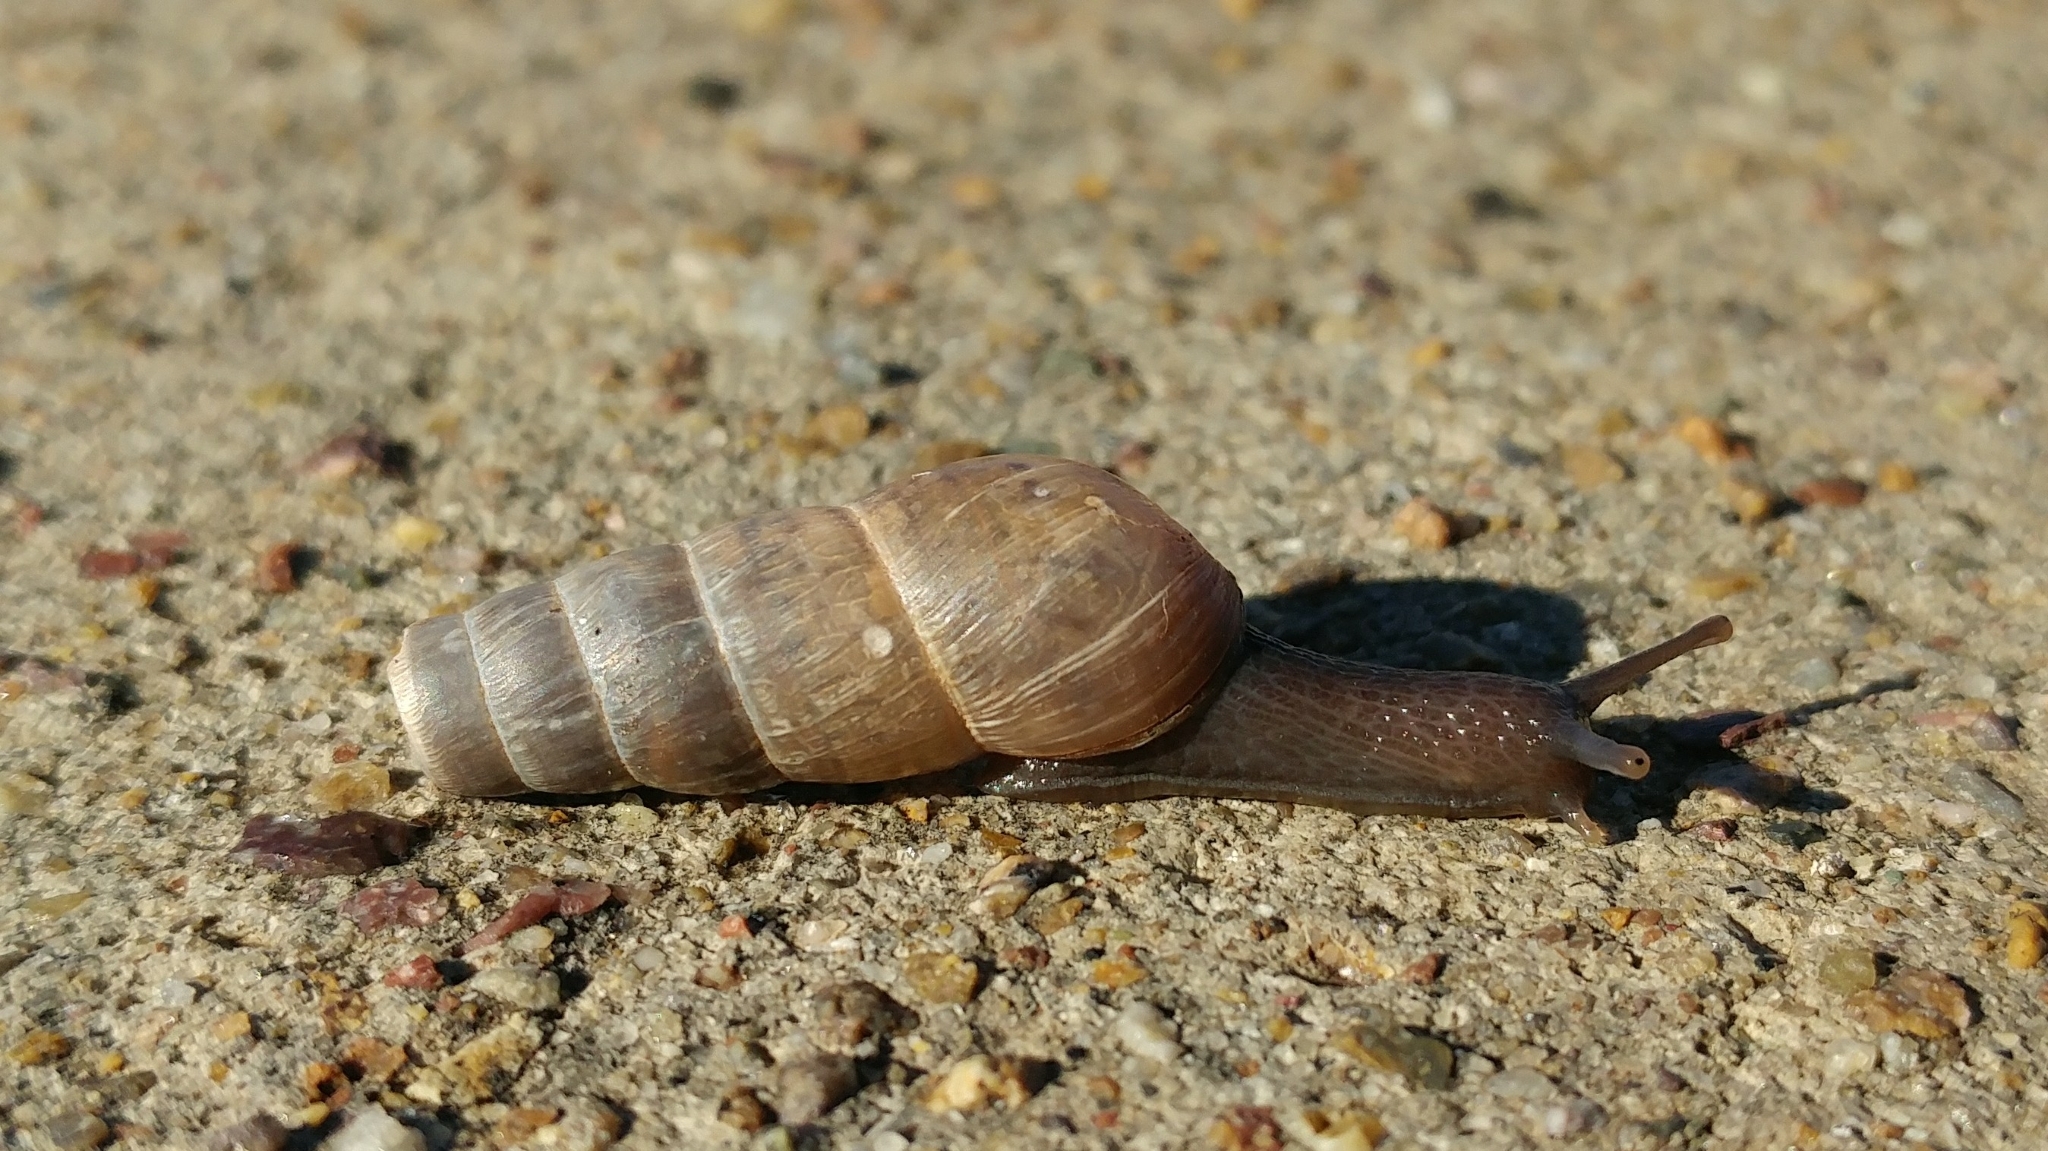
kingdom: Animalia
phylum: Mollusca
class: Gastropoda
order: Stylommatophora
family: Achatinidae
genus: Rumina
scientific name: Rumina decollata
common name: Decollate snail
